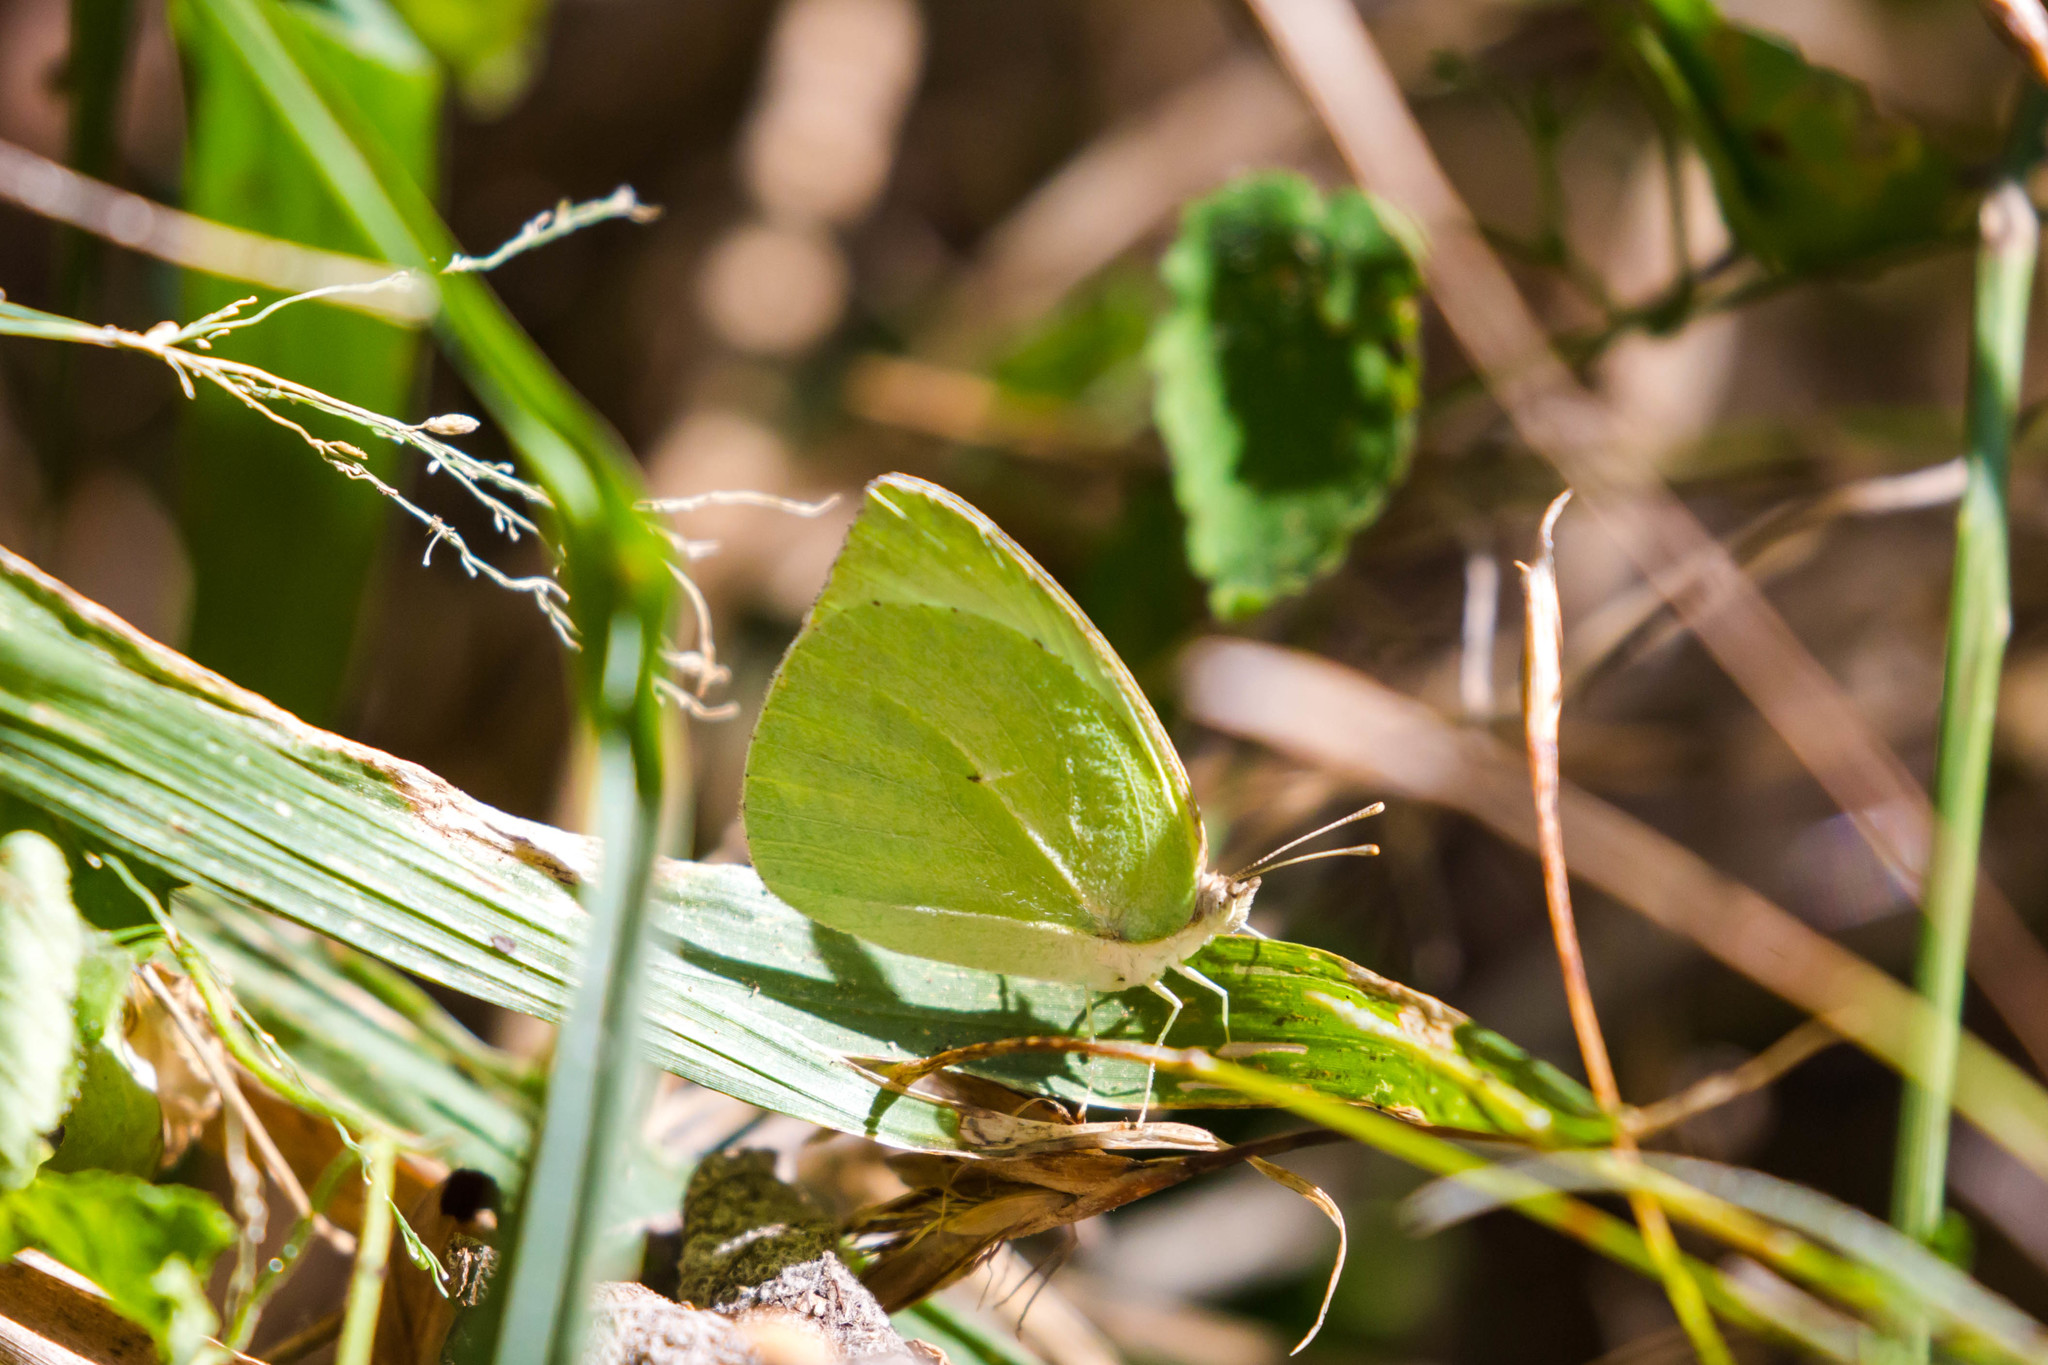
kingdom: Animalia
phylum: Arthropoda
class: Insecta
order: Lepidoptera
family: Pieridae
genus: Kricogonia
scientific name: Kricogonia lyside
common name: Guayacan sulphur,
